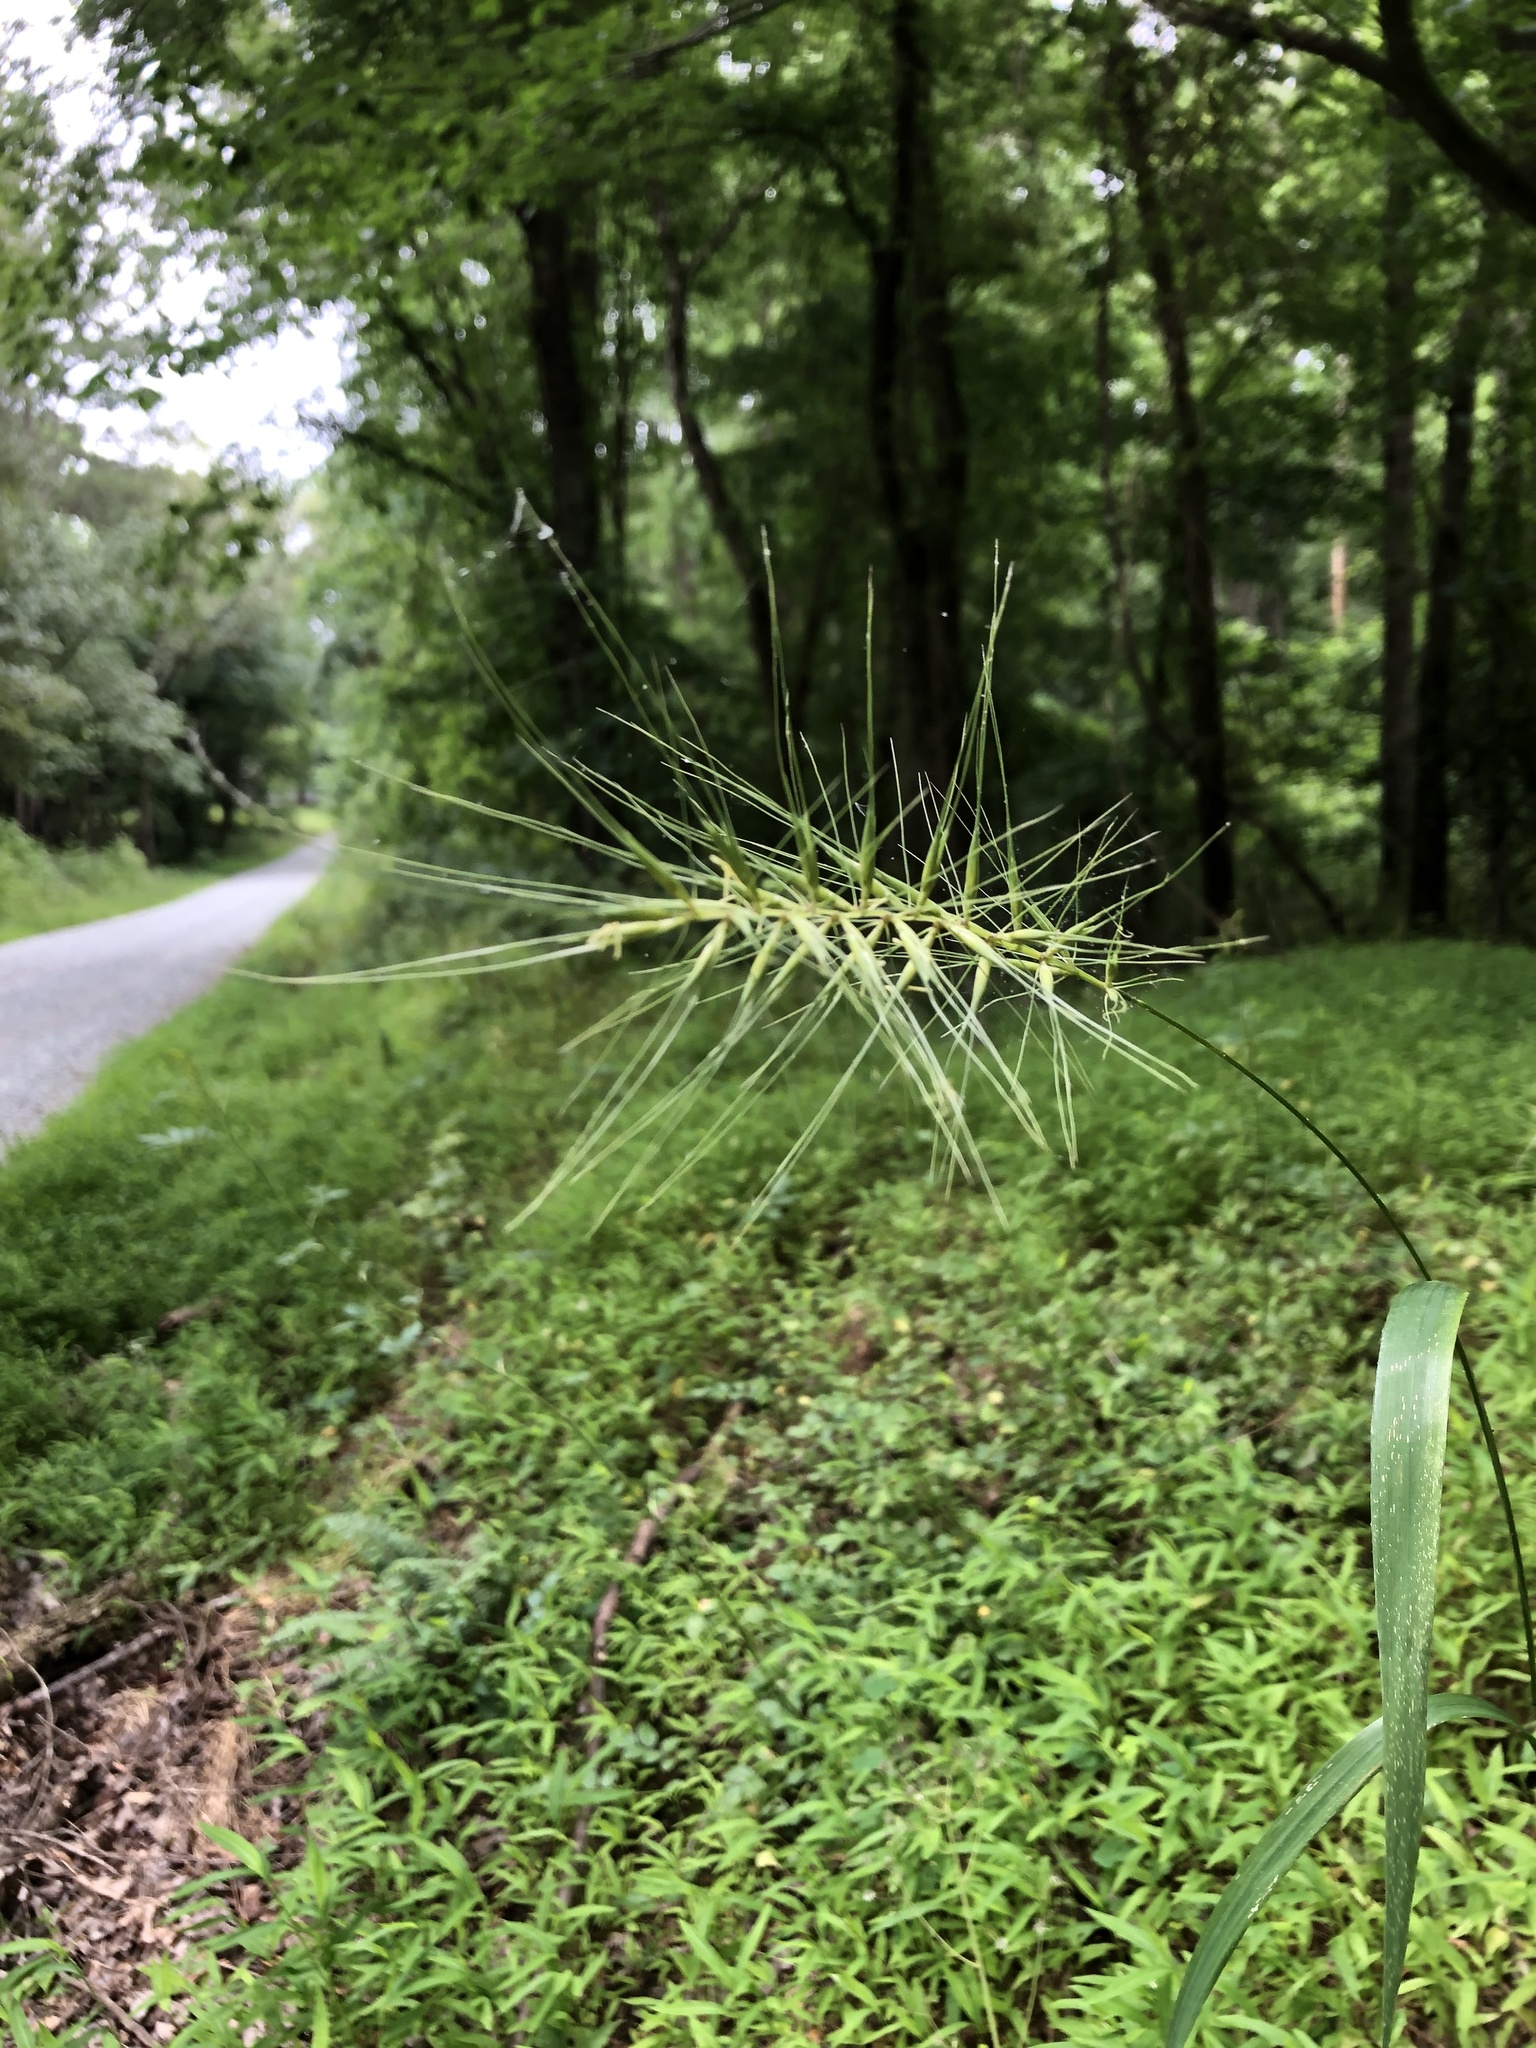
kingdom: Plantae
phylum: Tracheophyta
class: Liliopsida
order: Poales
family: Poaceae
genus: Elymus
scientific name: Elymus hystrix
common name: Bottlebrush grass
